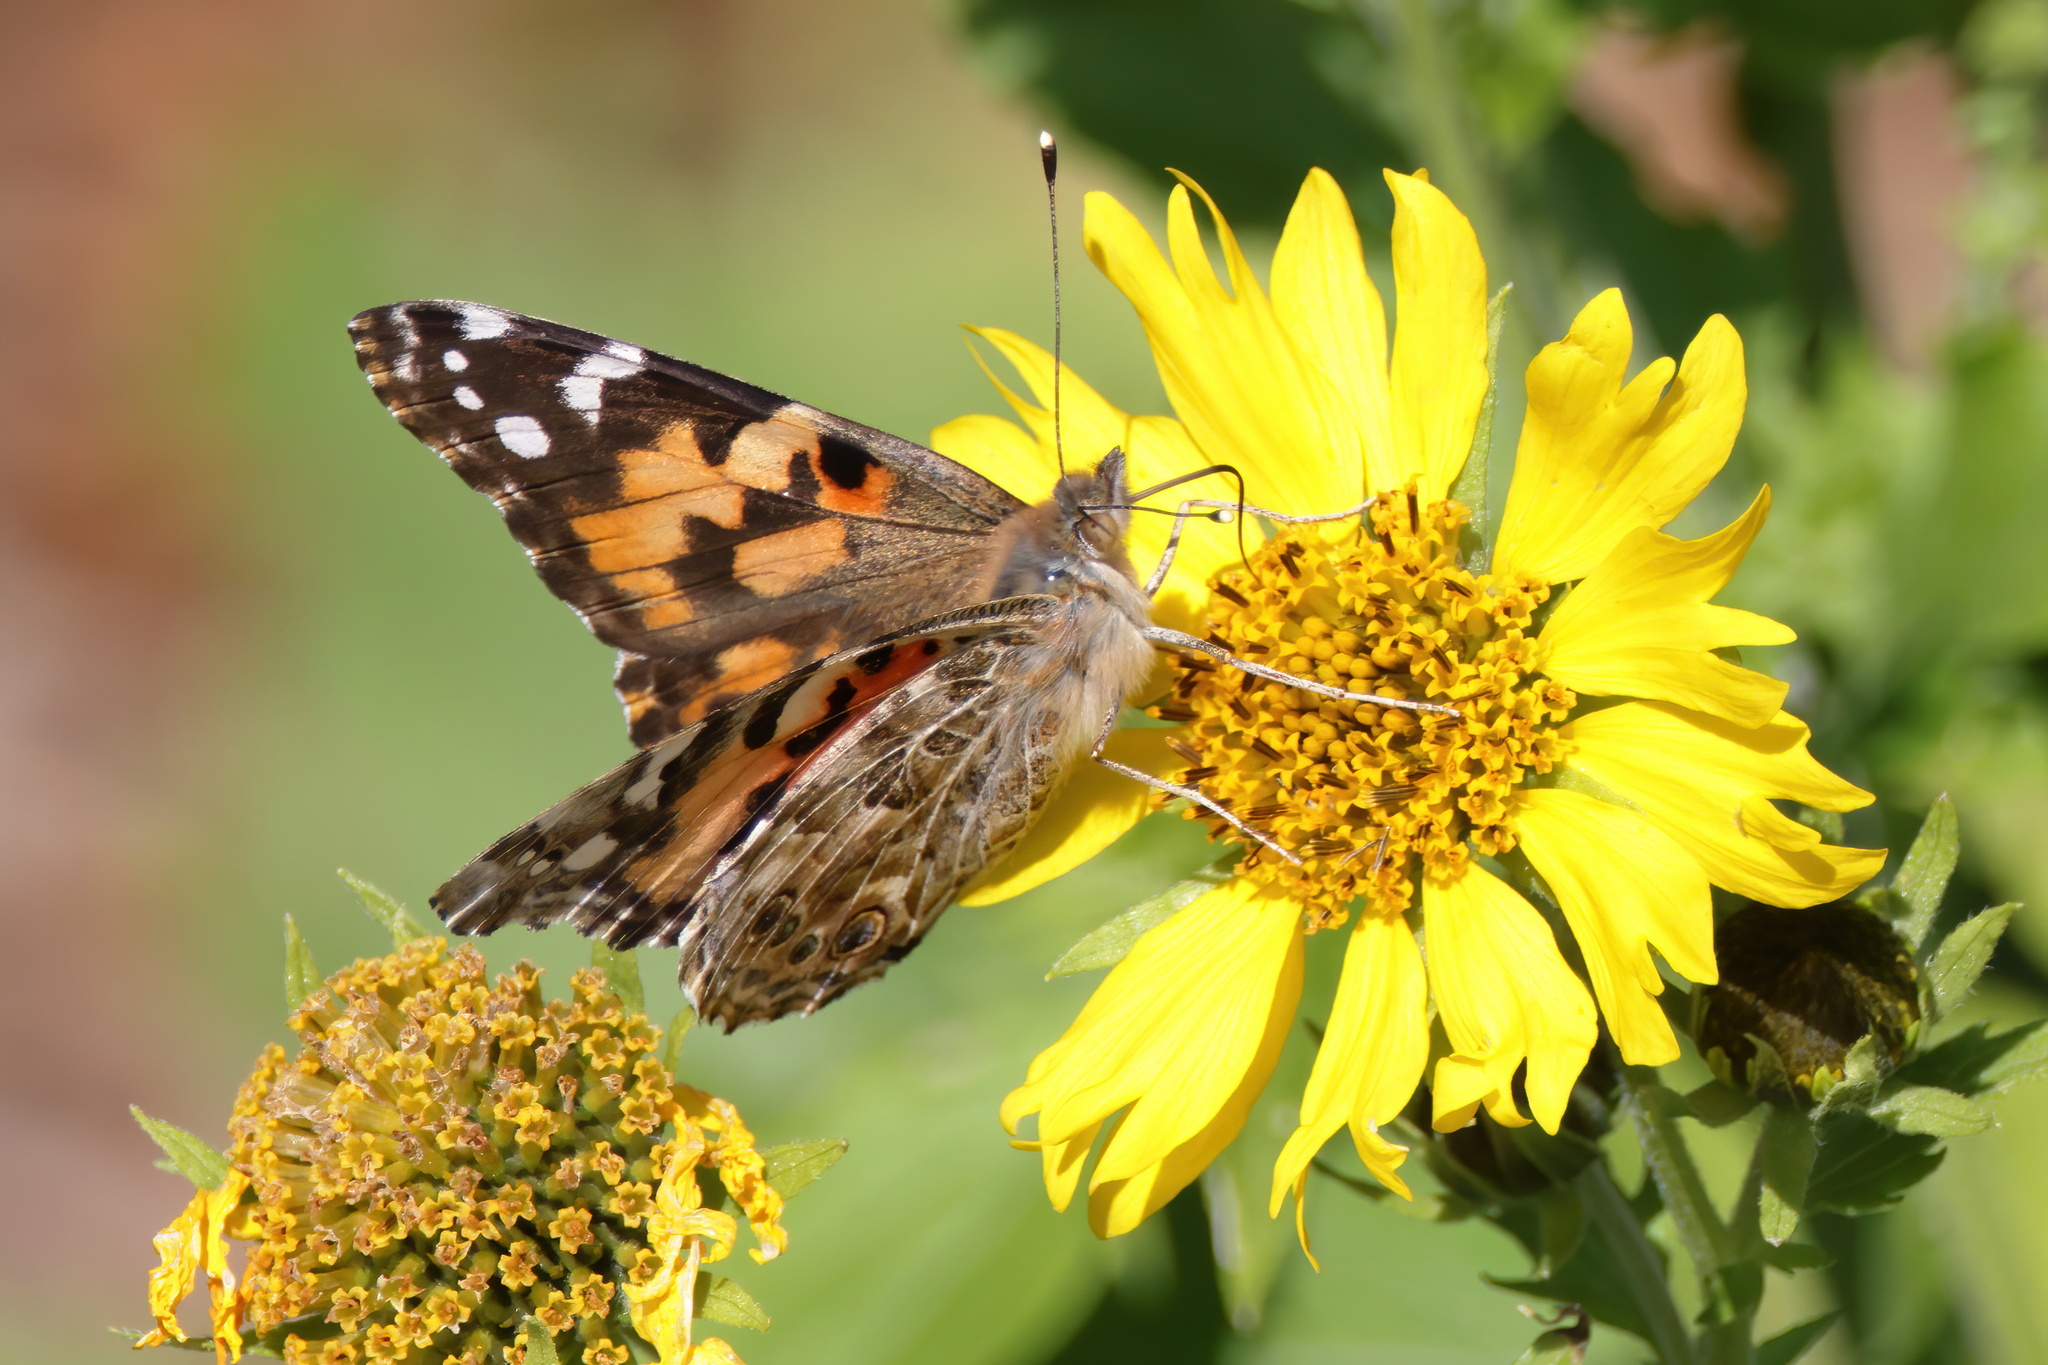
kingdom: Animalia
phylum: Arthropoda
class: Insecta
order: Lepidoptera
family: Nymphalidae
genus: Vanessa
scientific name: Vanessa cardui
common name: Painted lady
